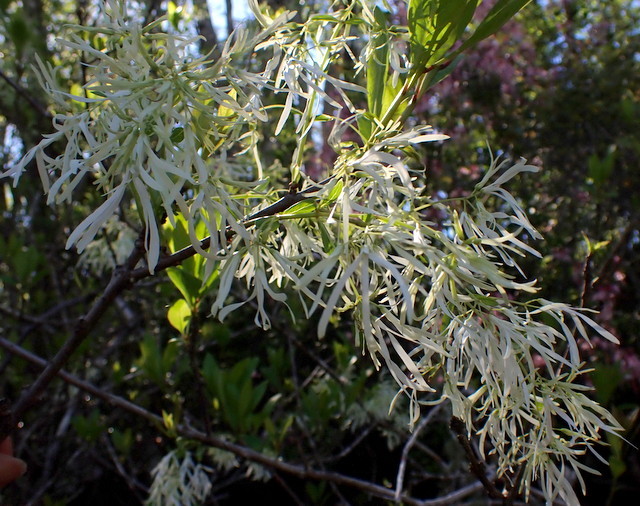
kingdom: Plantae
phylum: Tracheophyta
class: Magnoliopsida
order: Lamiales
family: Oleaceae
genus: Chionanthus
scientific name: Chionanthus virginicus
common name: American fringetree
